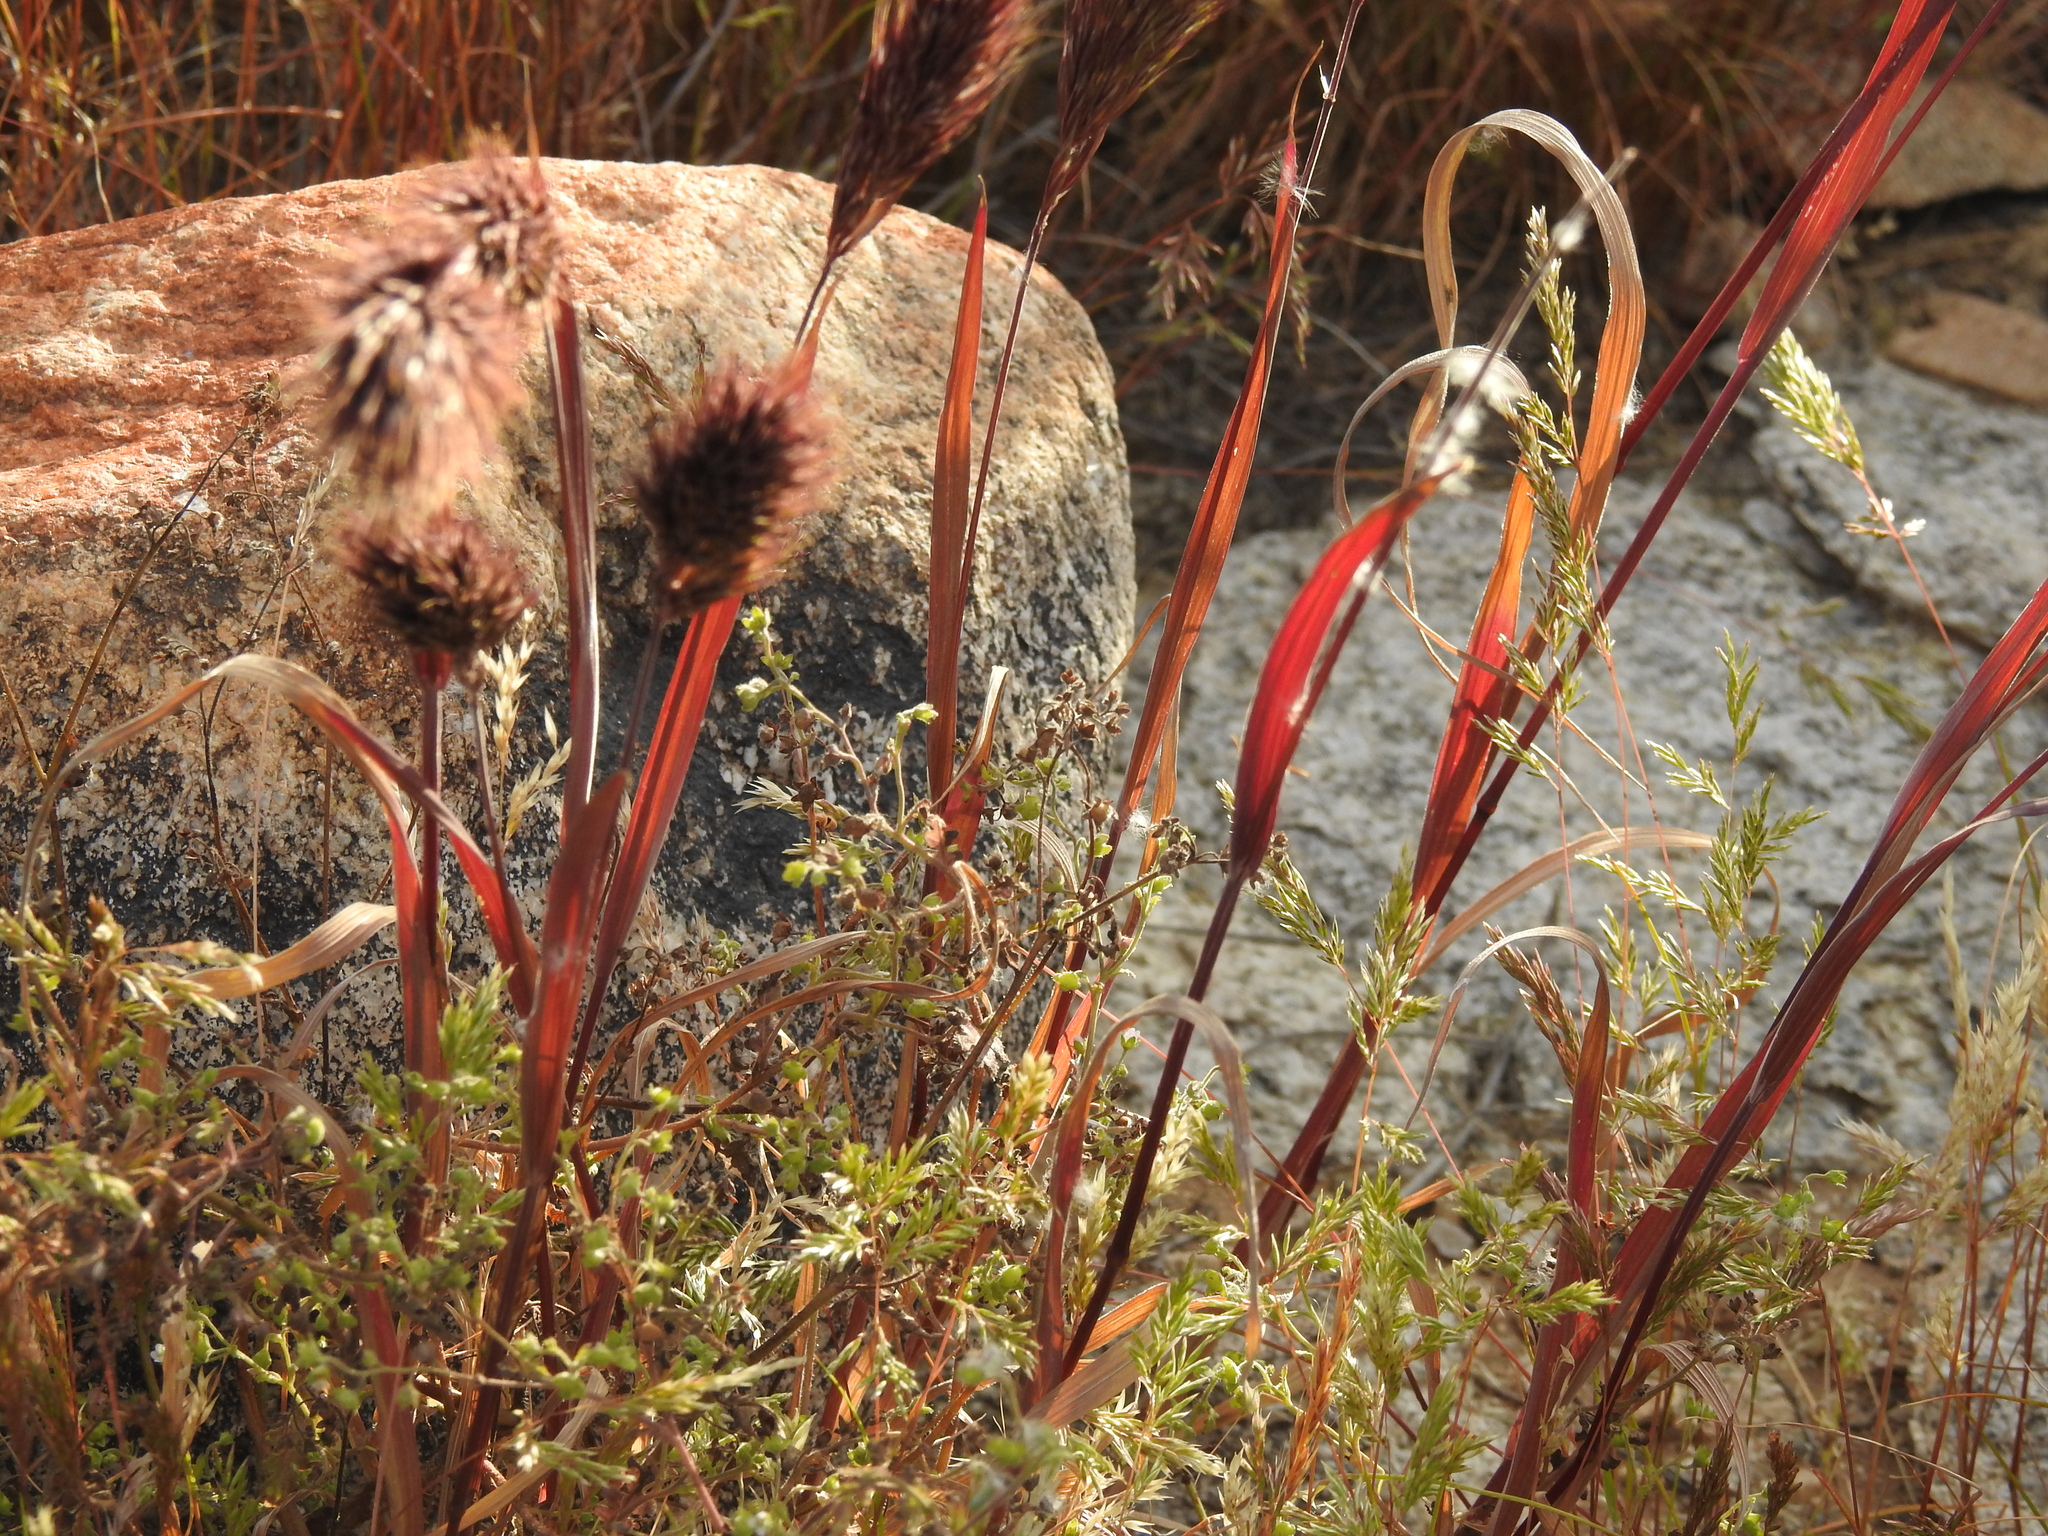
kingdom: Plantae
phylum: Tracheophyta
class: Liliopsida
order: Poales
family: Poaceae
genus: Bromus
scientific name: Bromus rubens
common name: Red brome
